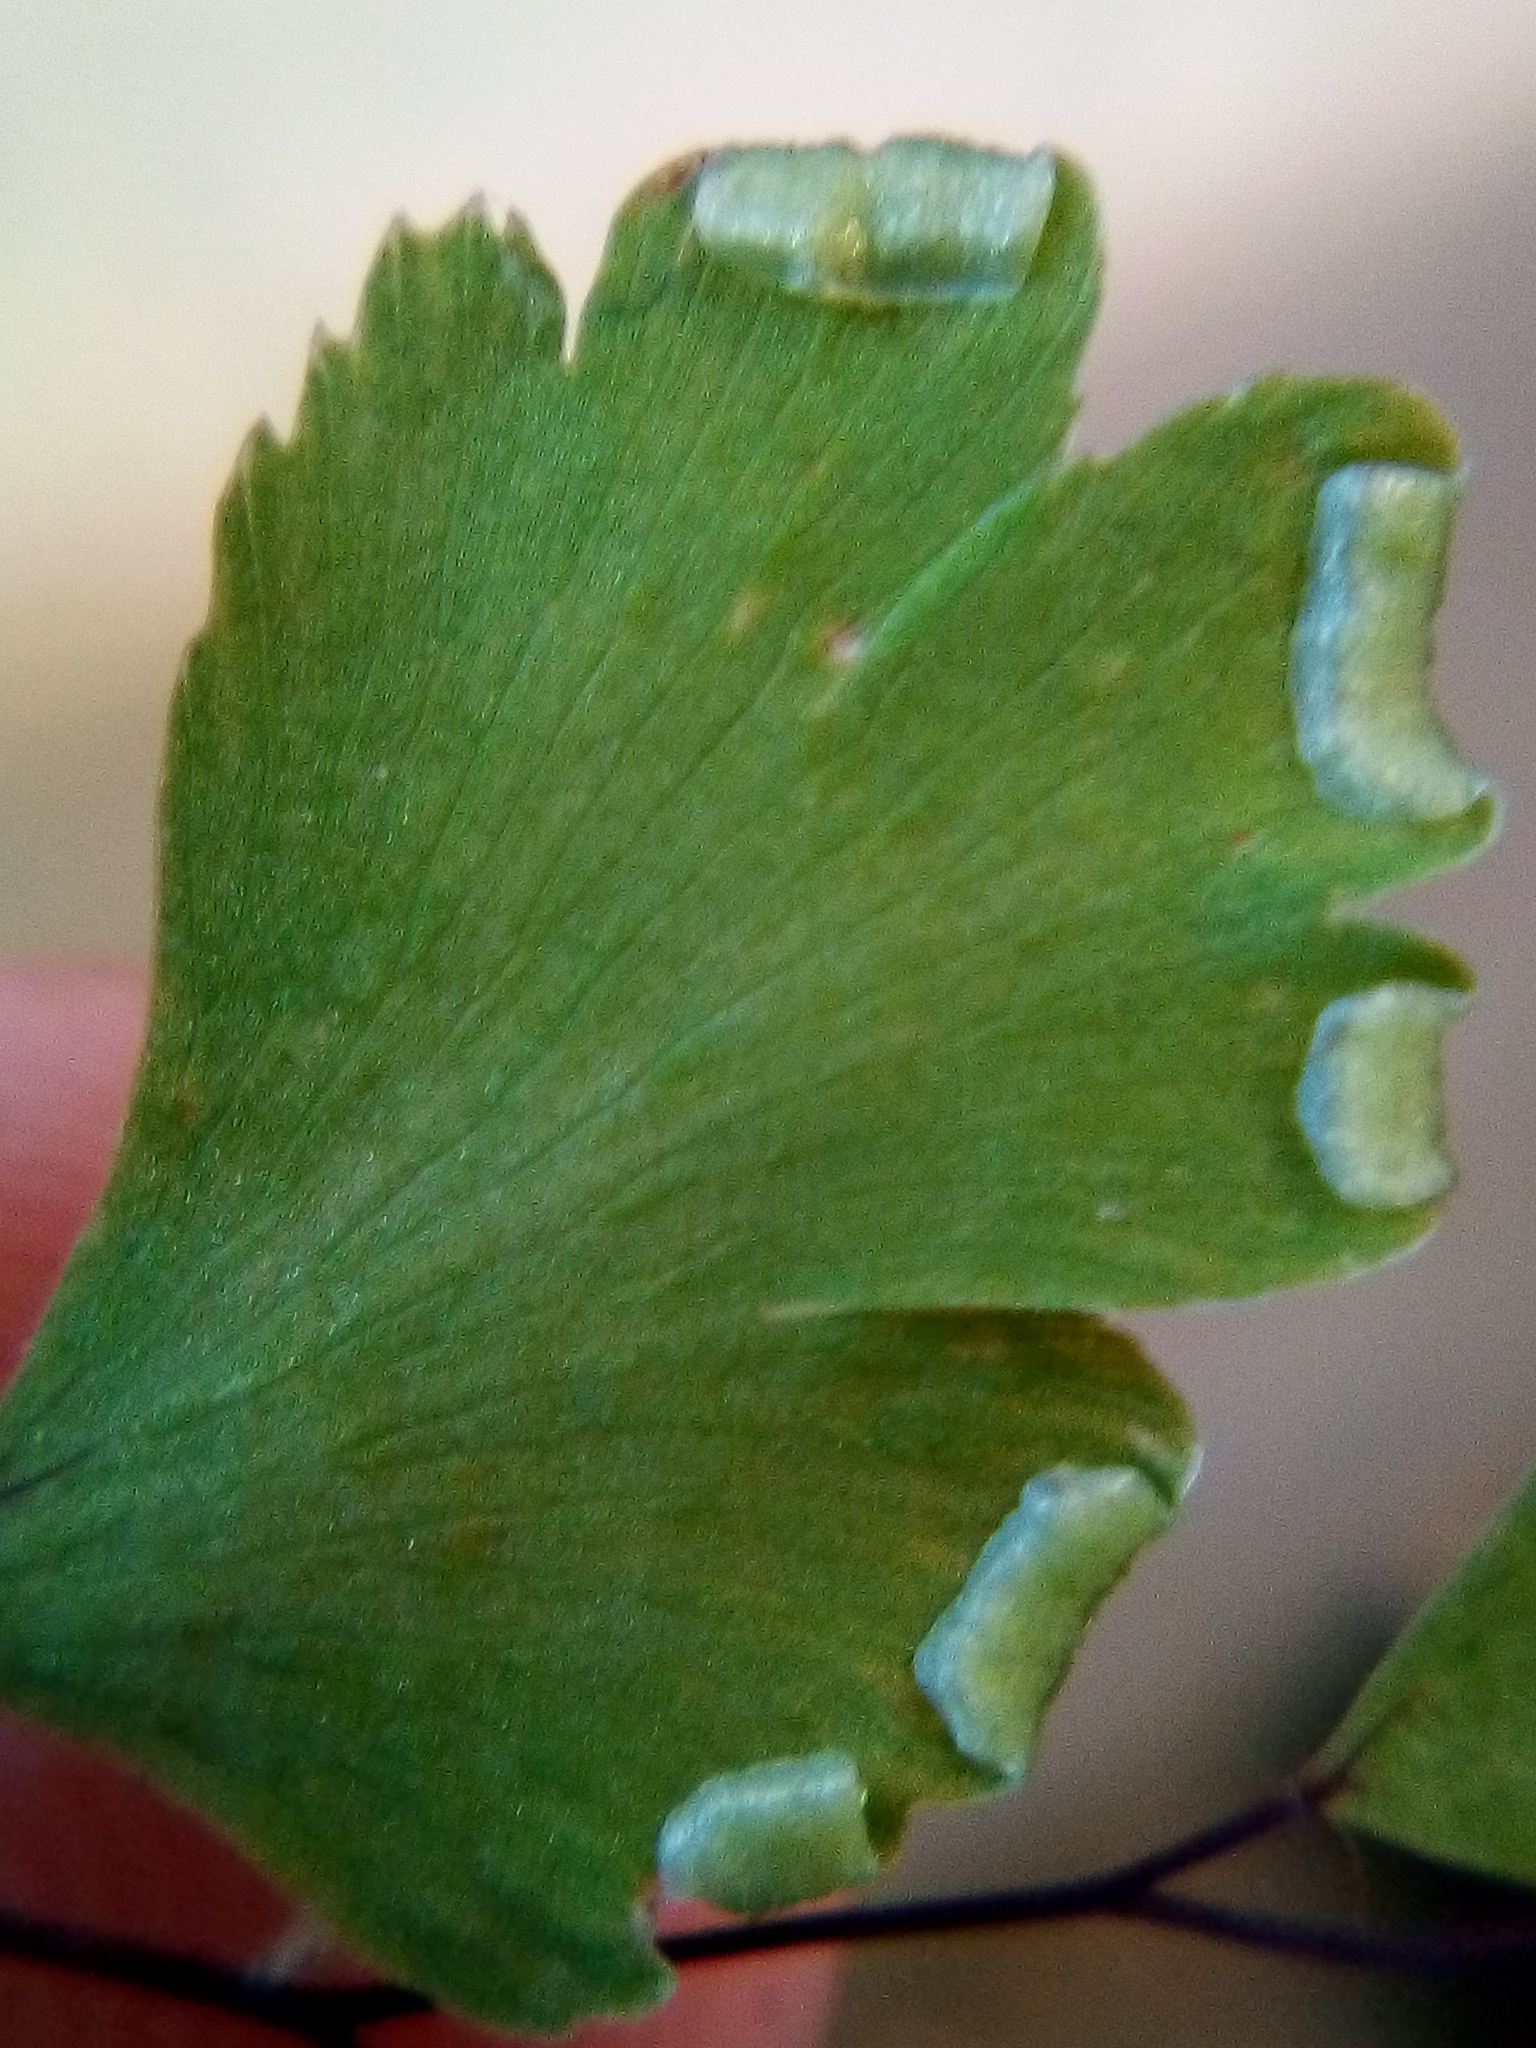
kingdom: Plantae
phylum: Tracheophyta
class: Polypodiopsida
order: Polypodiales
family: Pteridaceae
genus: Adiantum
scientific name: Adiantum capillus-veneris
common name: Maidenhair fern
